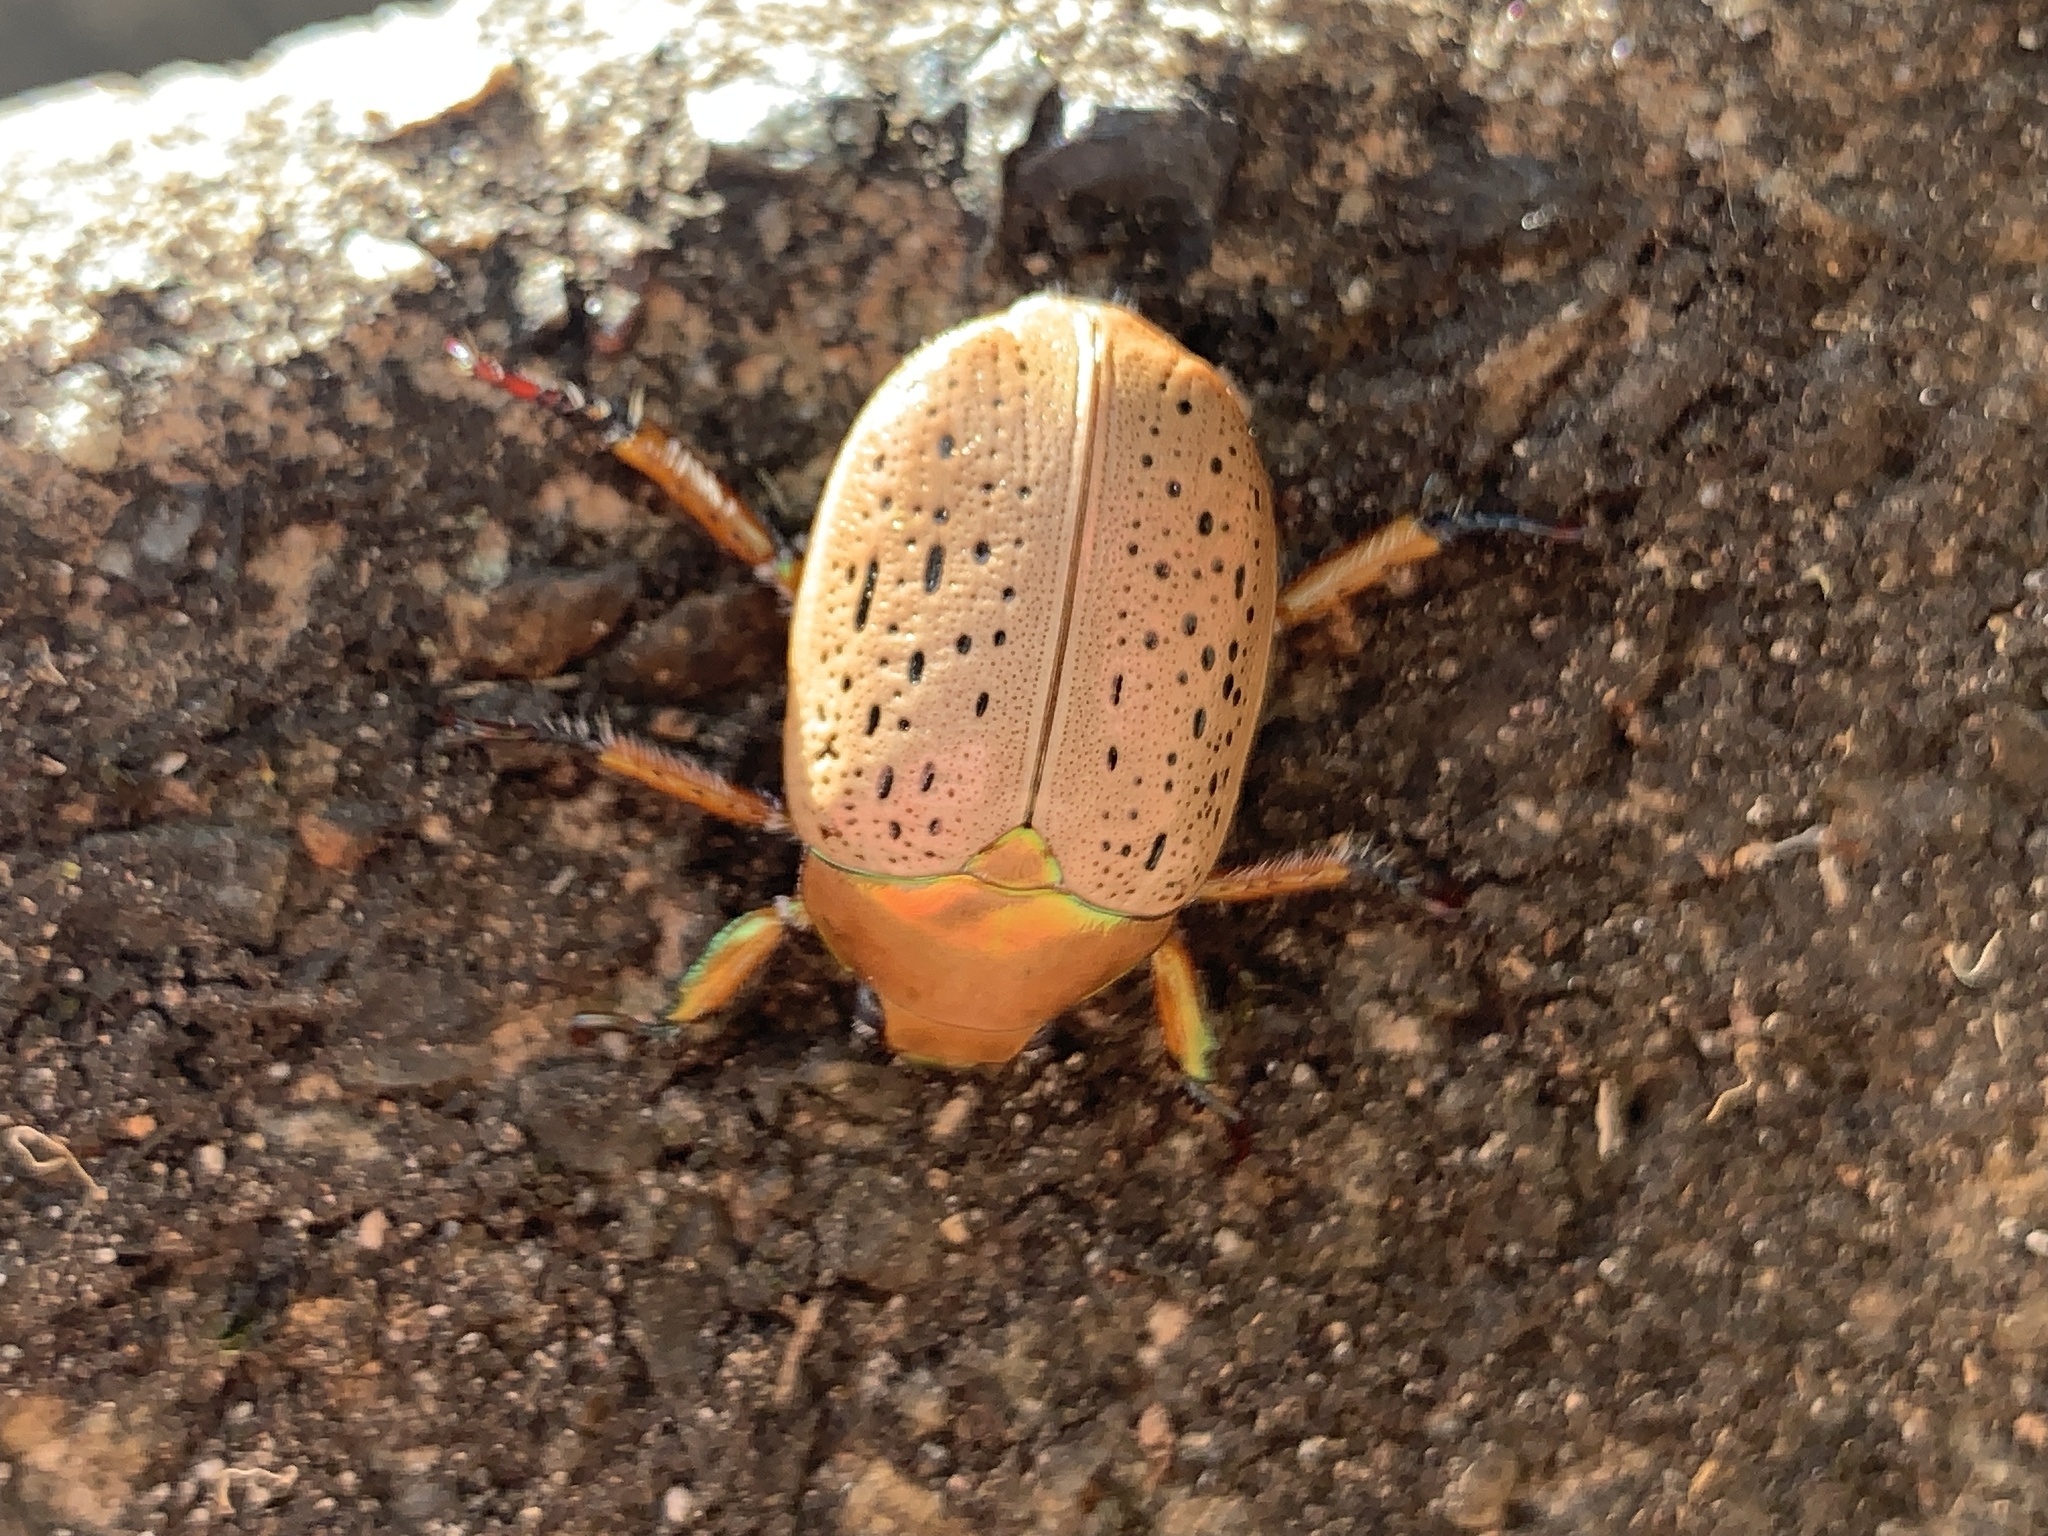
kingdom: Animalia
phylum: Arthropoda
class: Insecta
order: Coleoptera
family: Scarabaeidae
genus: Anoplognathus
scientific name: Anoplognathus porosus
